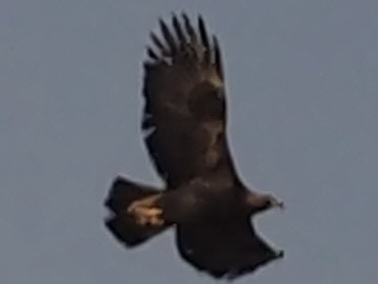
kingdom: Animalia
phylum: Chordata
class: Aves
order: Accipitriformes
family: Accipitridae
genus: Aquila
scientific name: Aquila chrysaetos
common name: Golden eagle
